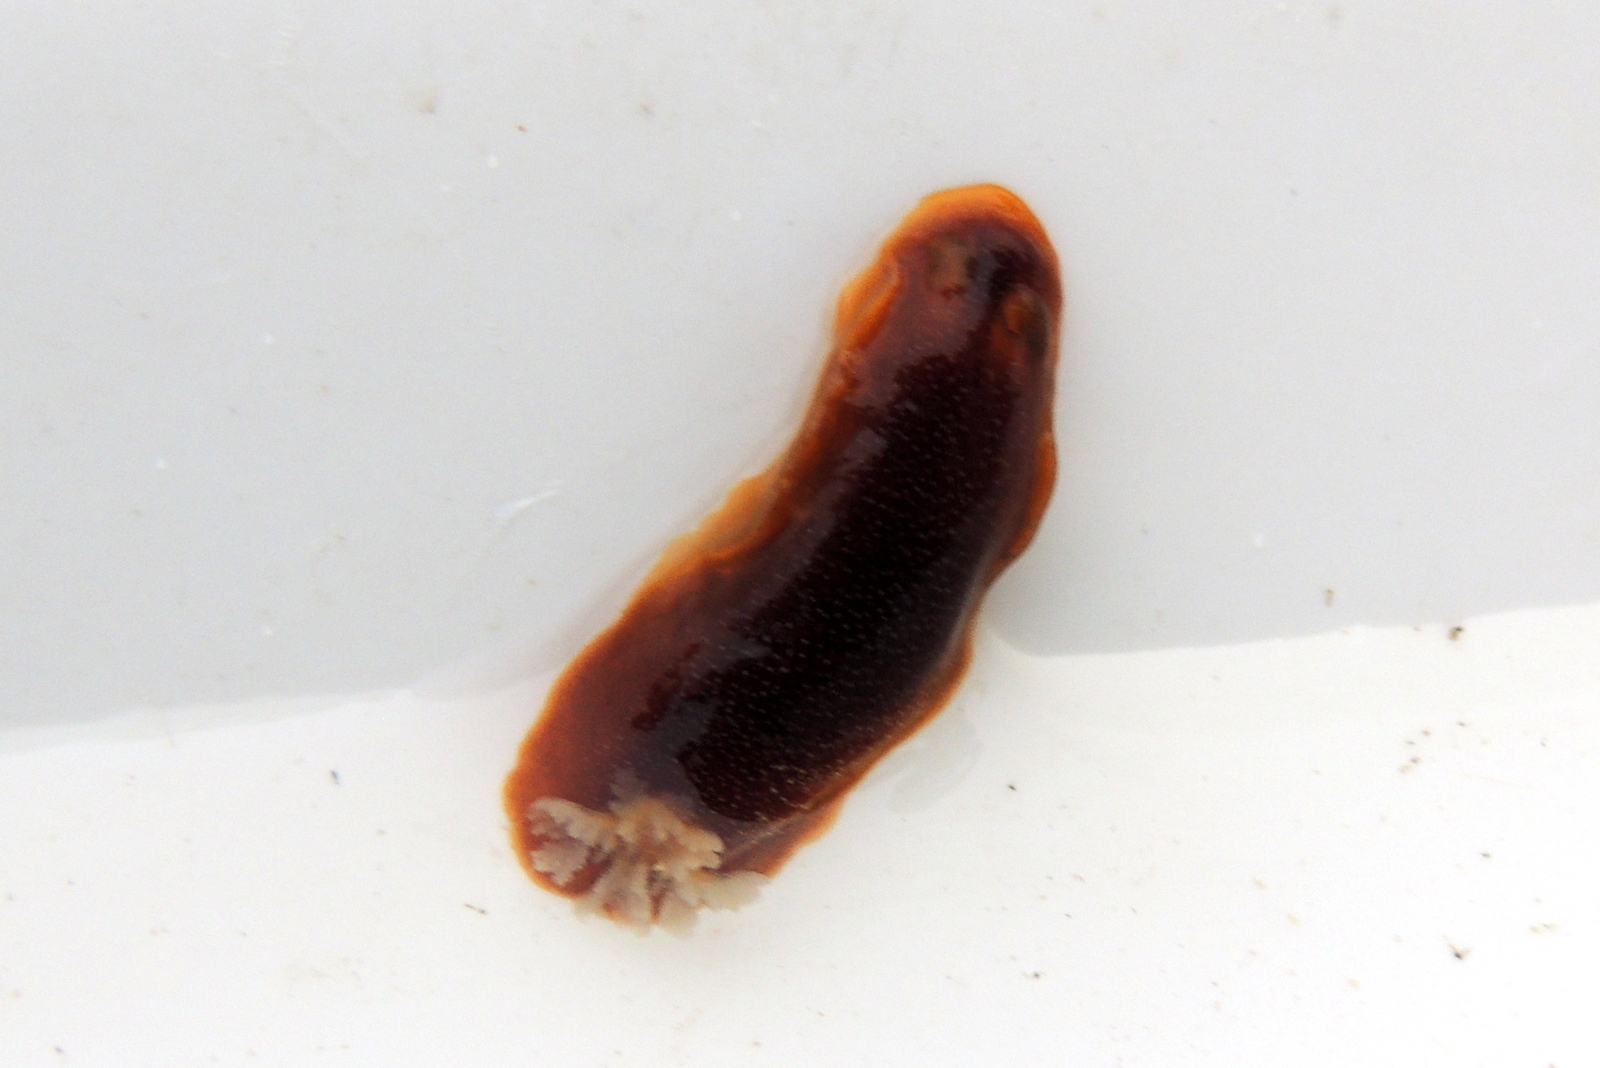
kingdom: Animalia
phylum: Mollusca
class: Gastropoda
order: Nudibranchia
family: Dendrodorididae
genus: Doriopsilla
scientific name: Doriopsilla albopunctata
